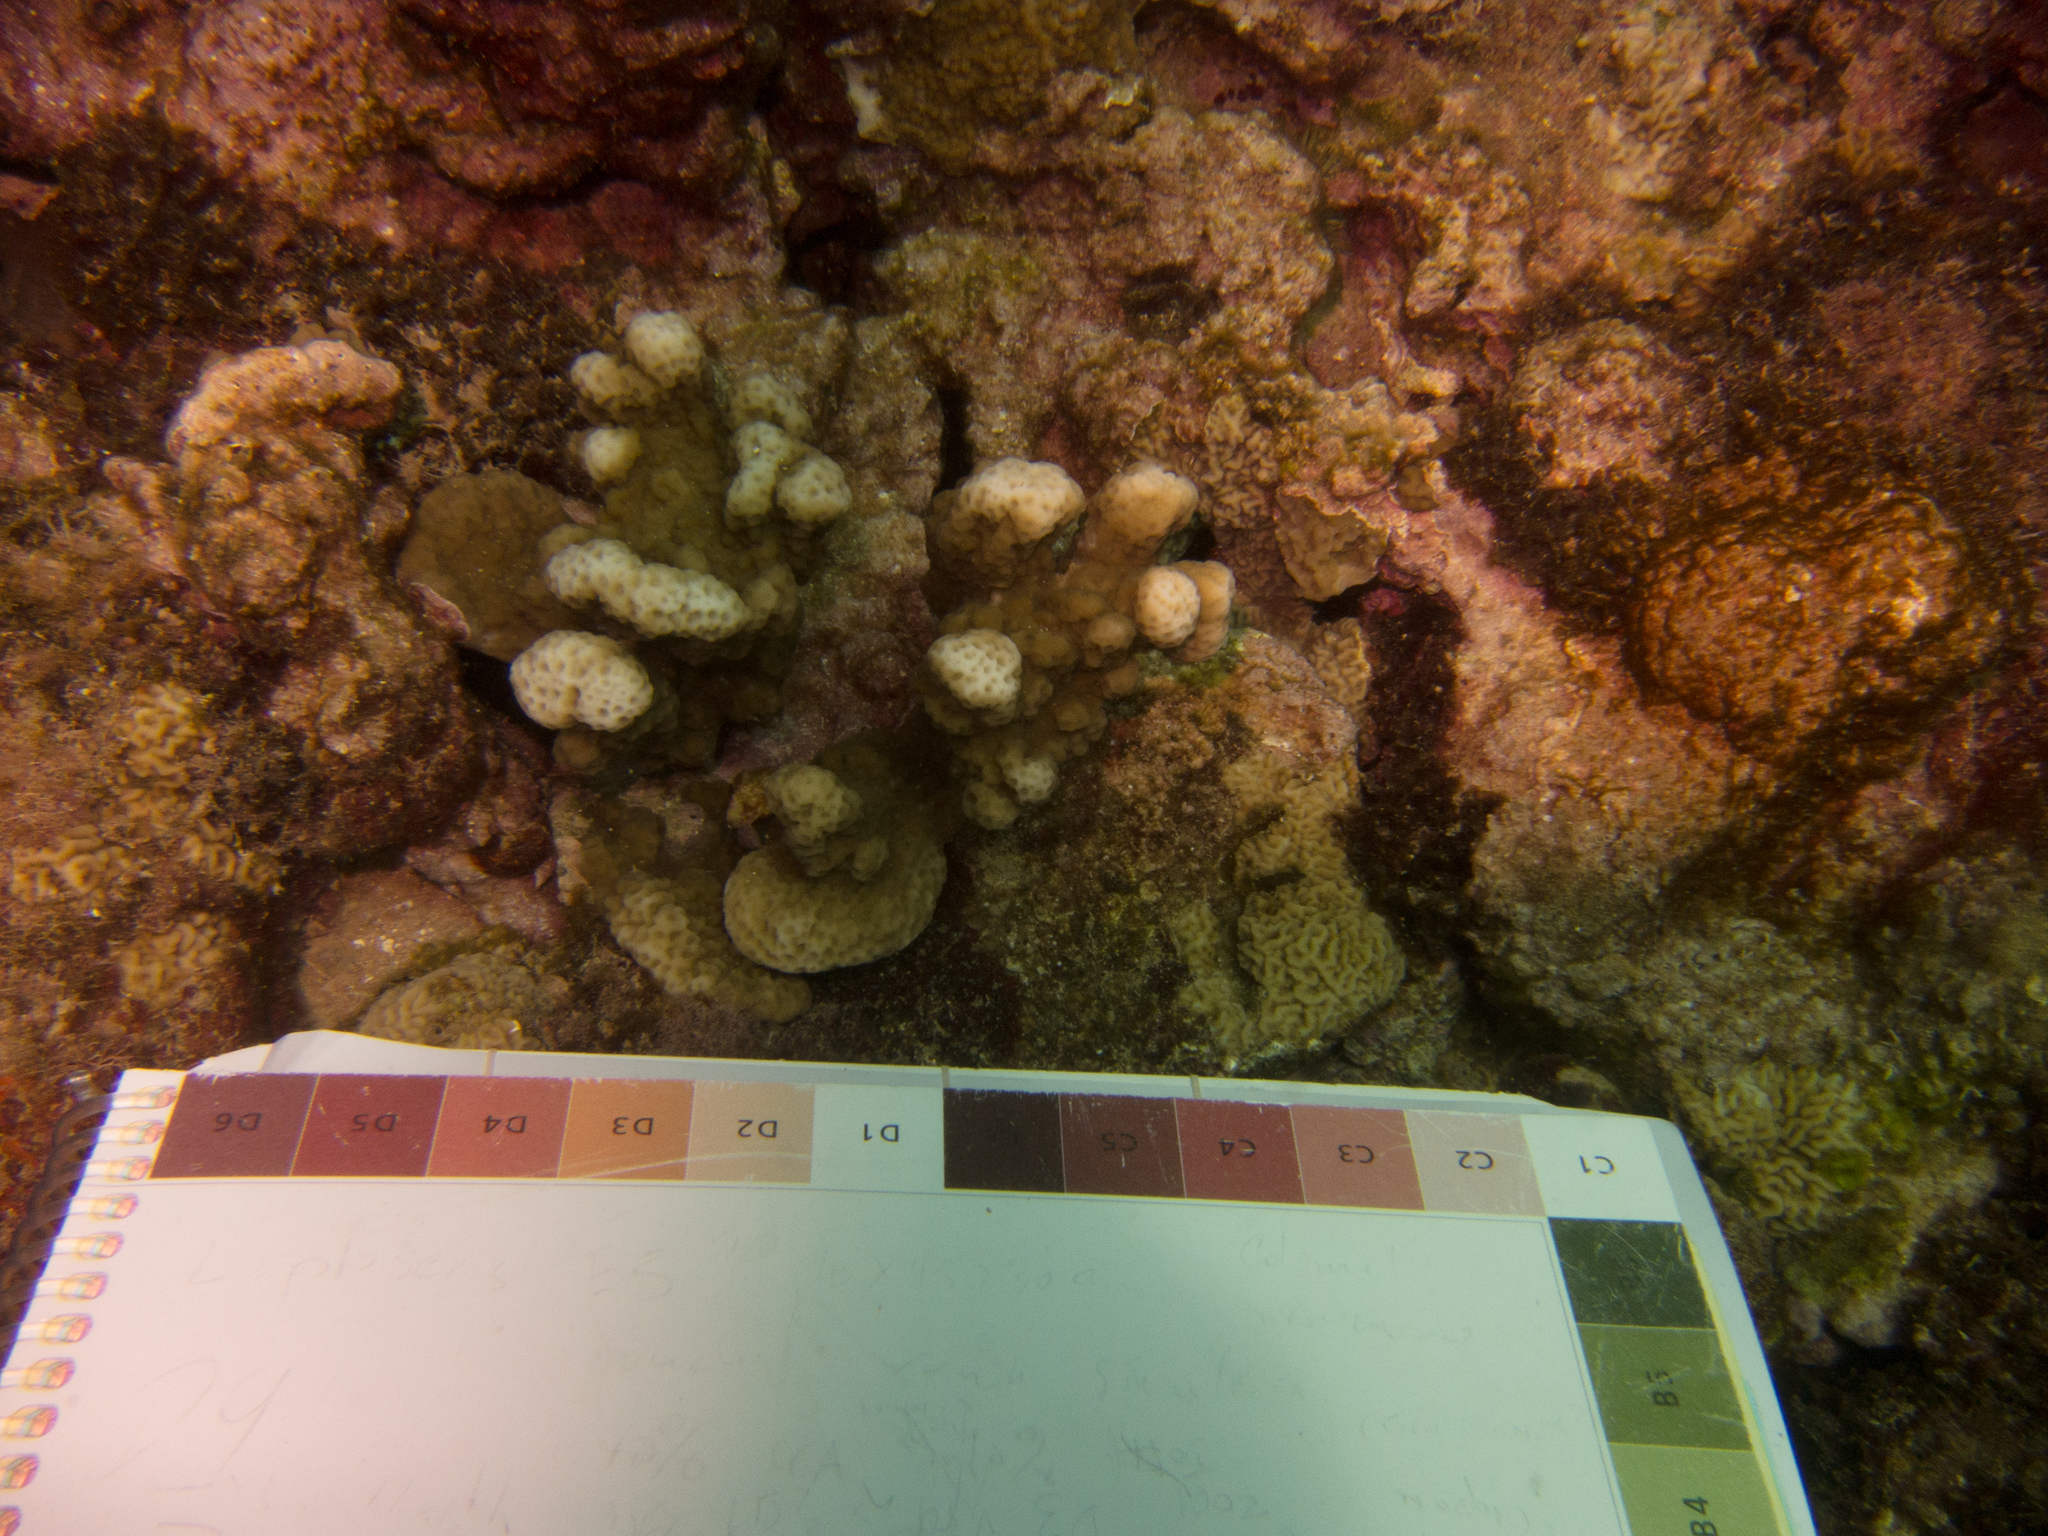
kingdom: Animalia
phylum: Cnidaria
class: Anthozoa
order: Scleractinia
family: Acroporidae
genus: Montipora
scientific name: Montipora incrassata
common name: Pore coral
